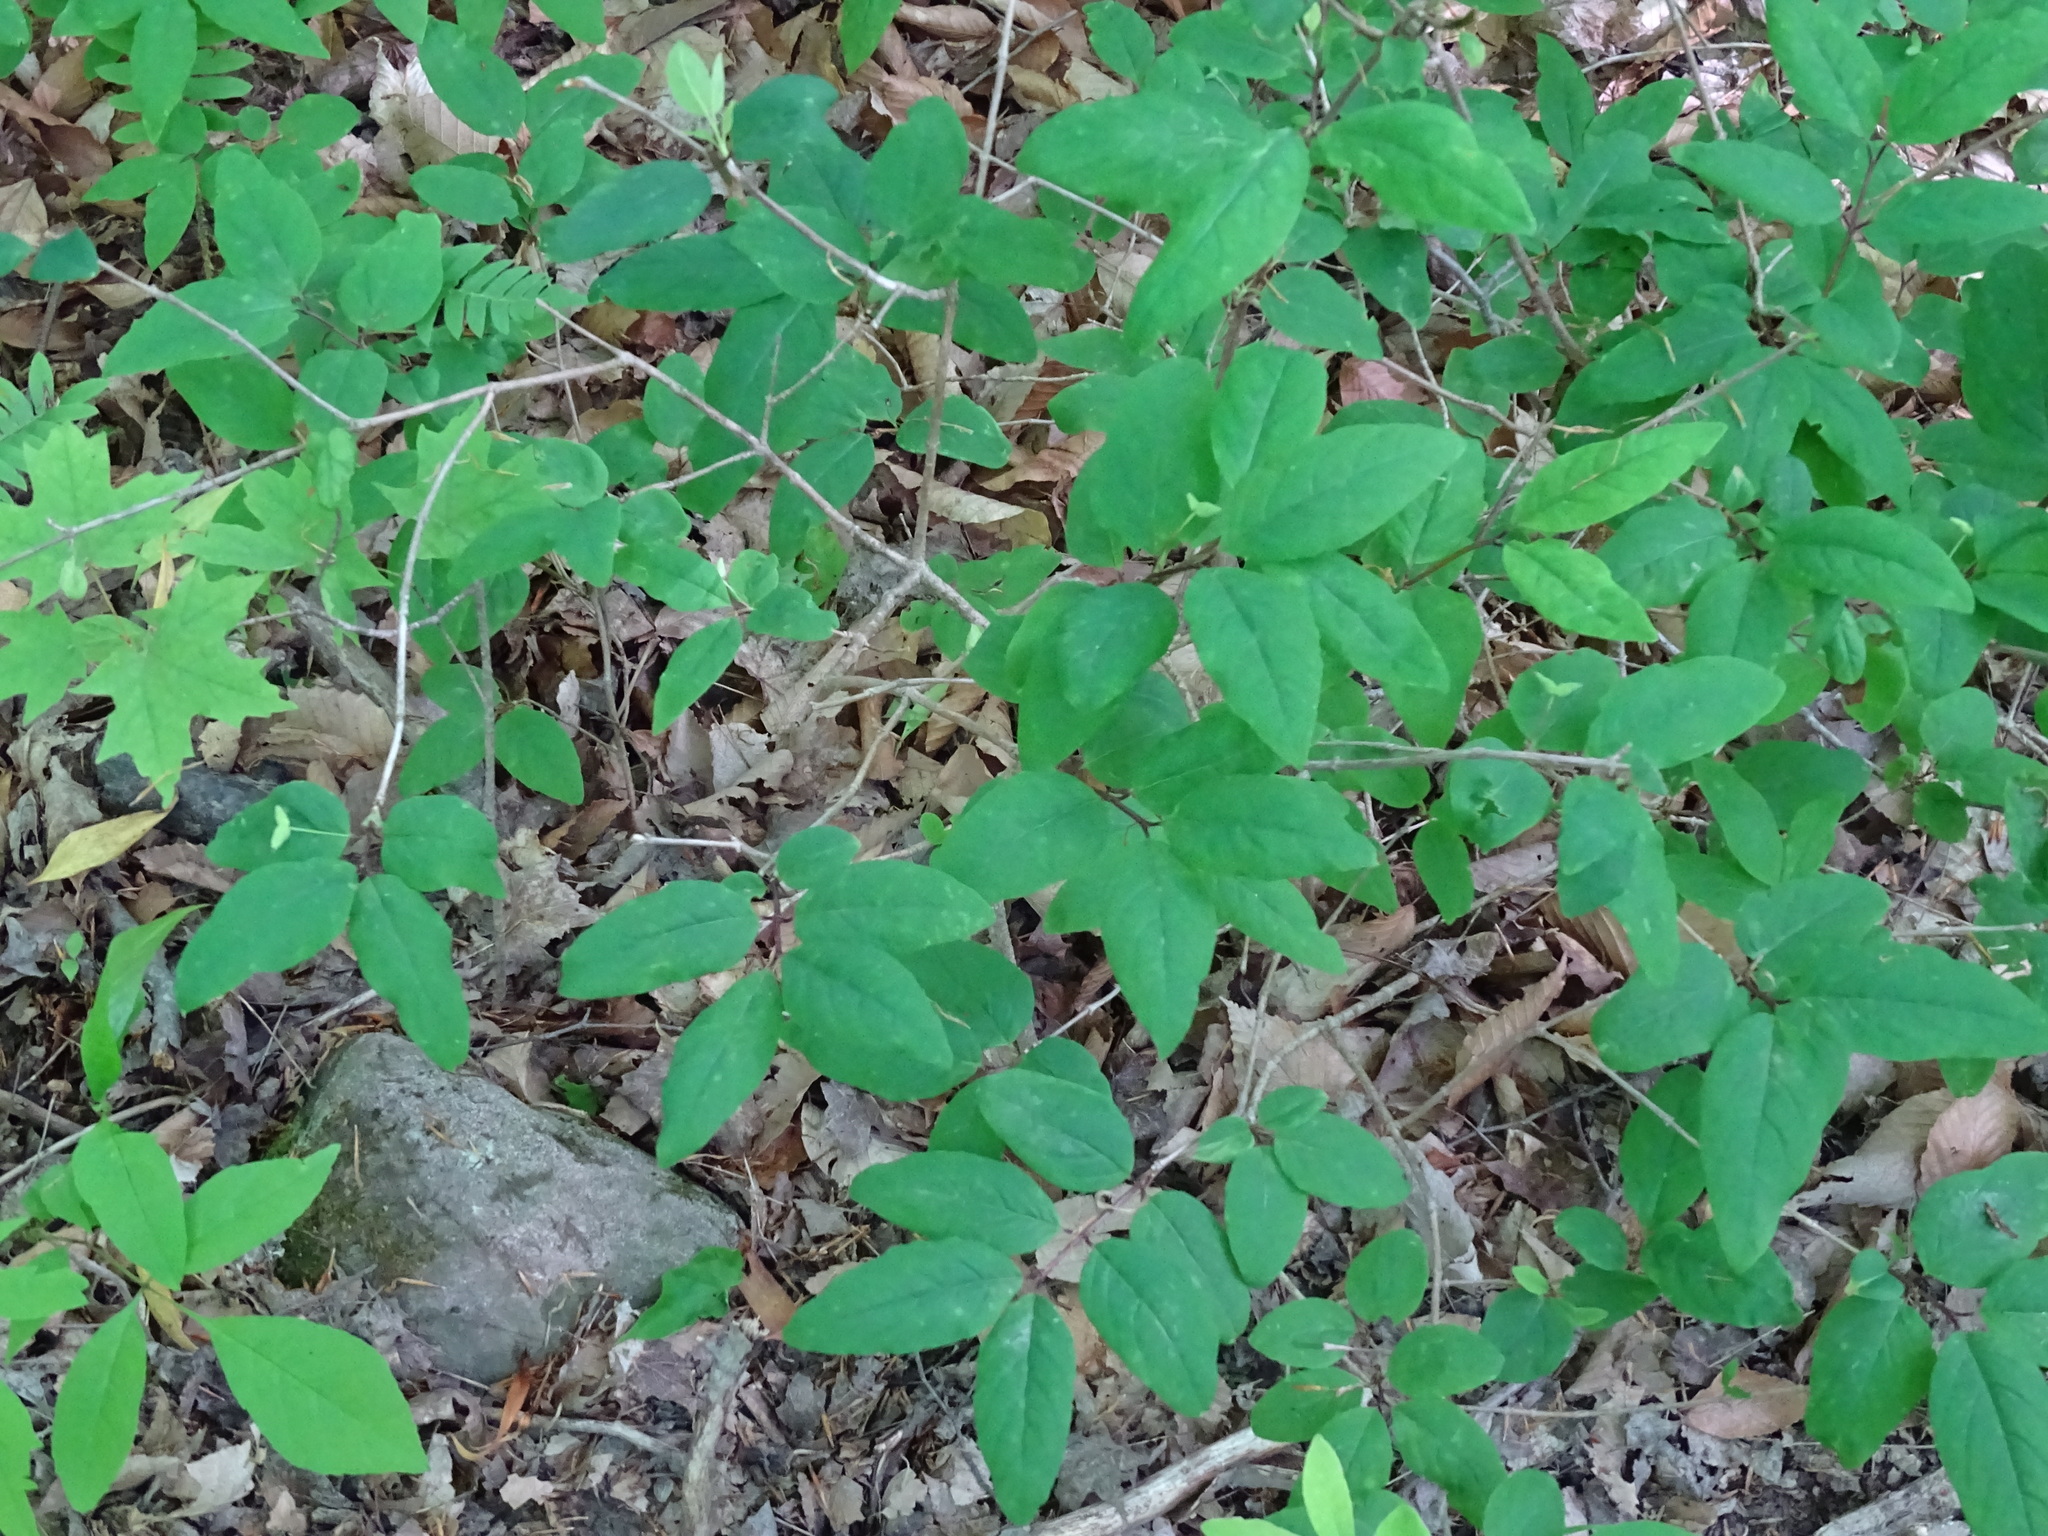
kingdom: Plantae
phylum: Tracheophyta
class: Magnoliopsida
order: Dipsacales
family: Caprifoliaceae
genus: Lonicera
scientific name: Lonicera canadensis
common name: American fly-honeysuckle
